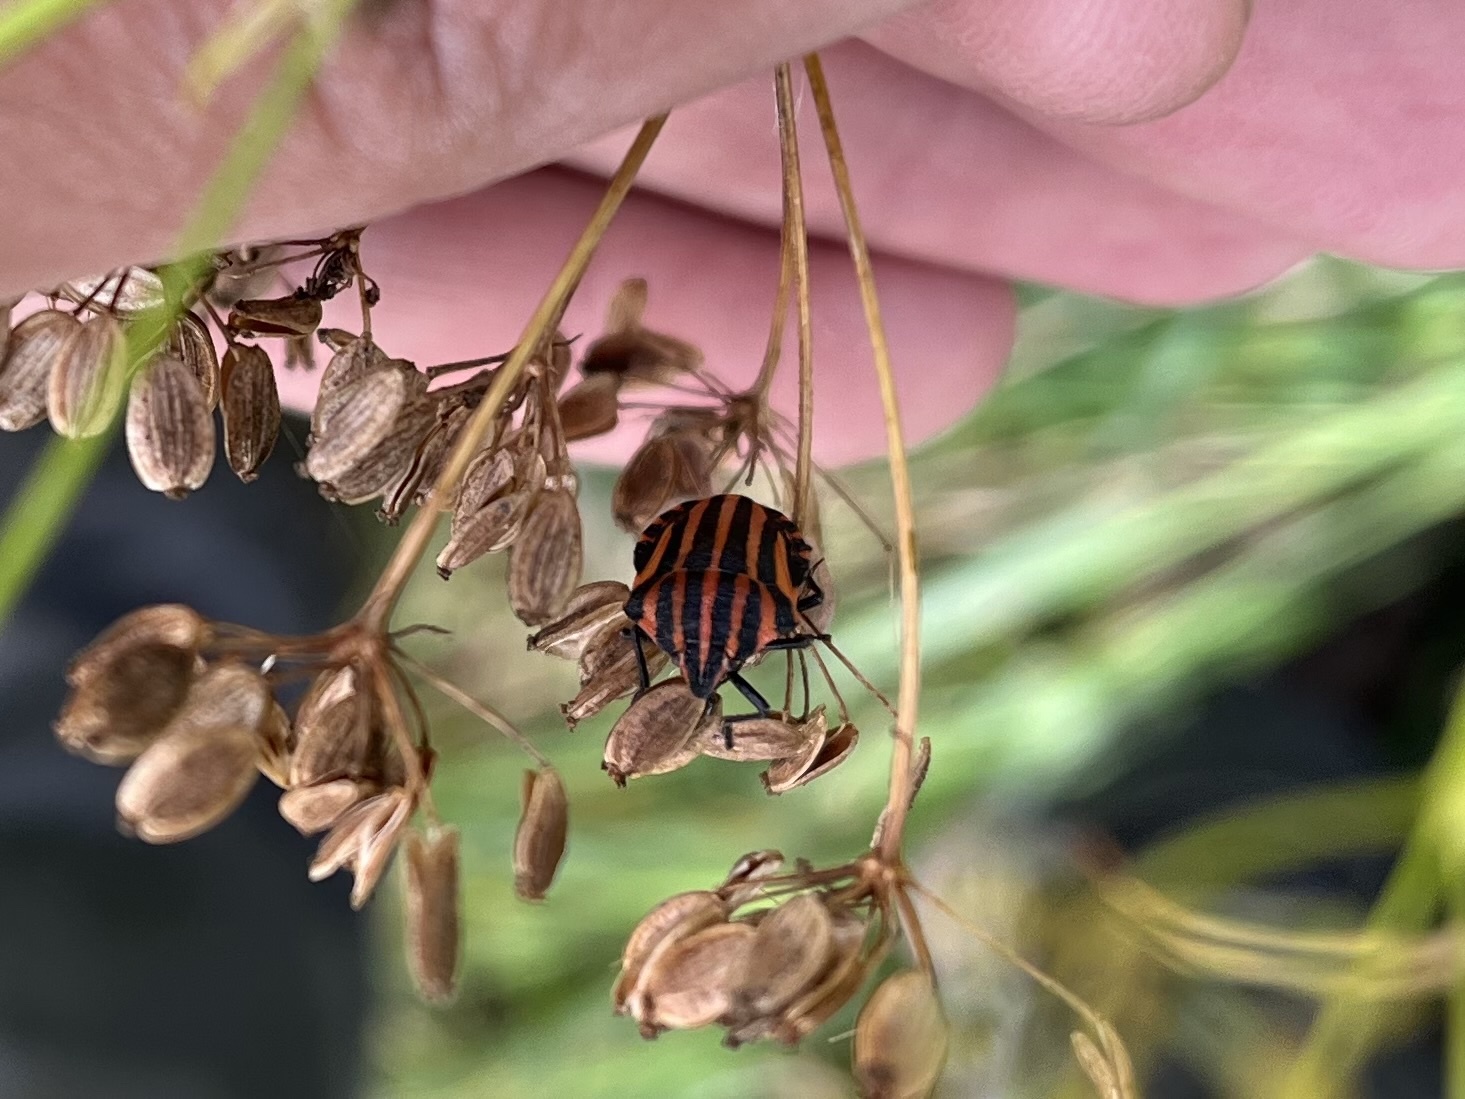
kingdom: Animalia
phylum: Arthropoda
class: Insecta
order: Hemiptera
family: Pentatomidae
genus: Graphosoma
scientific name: Graphosoma italicum
